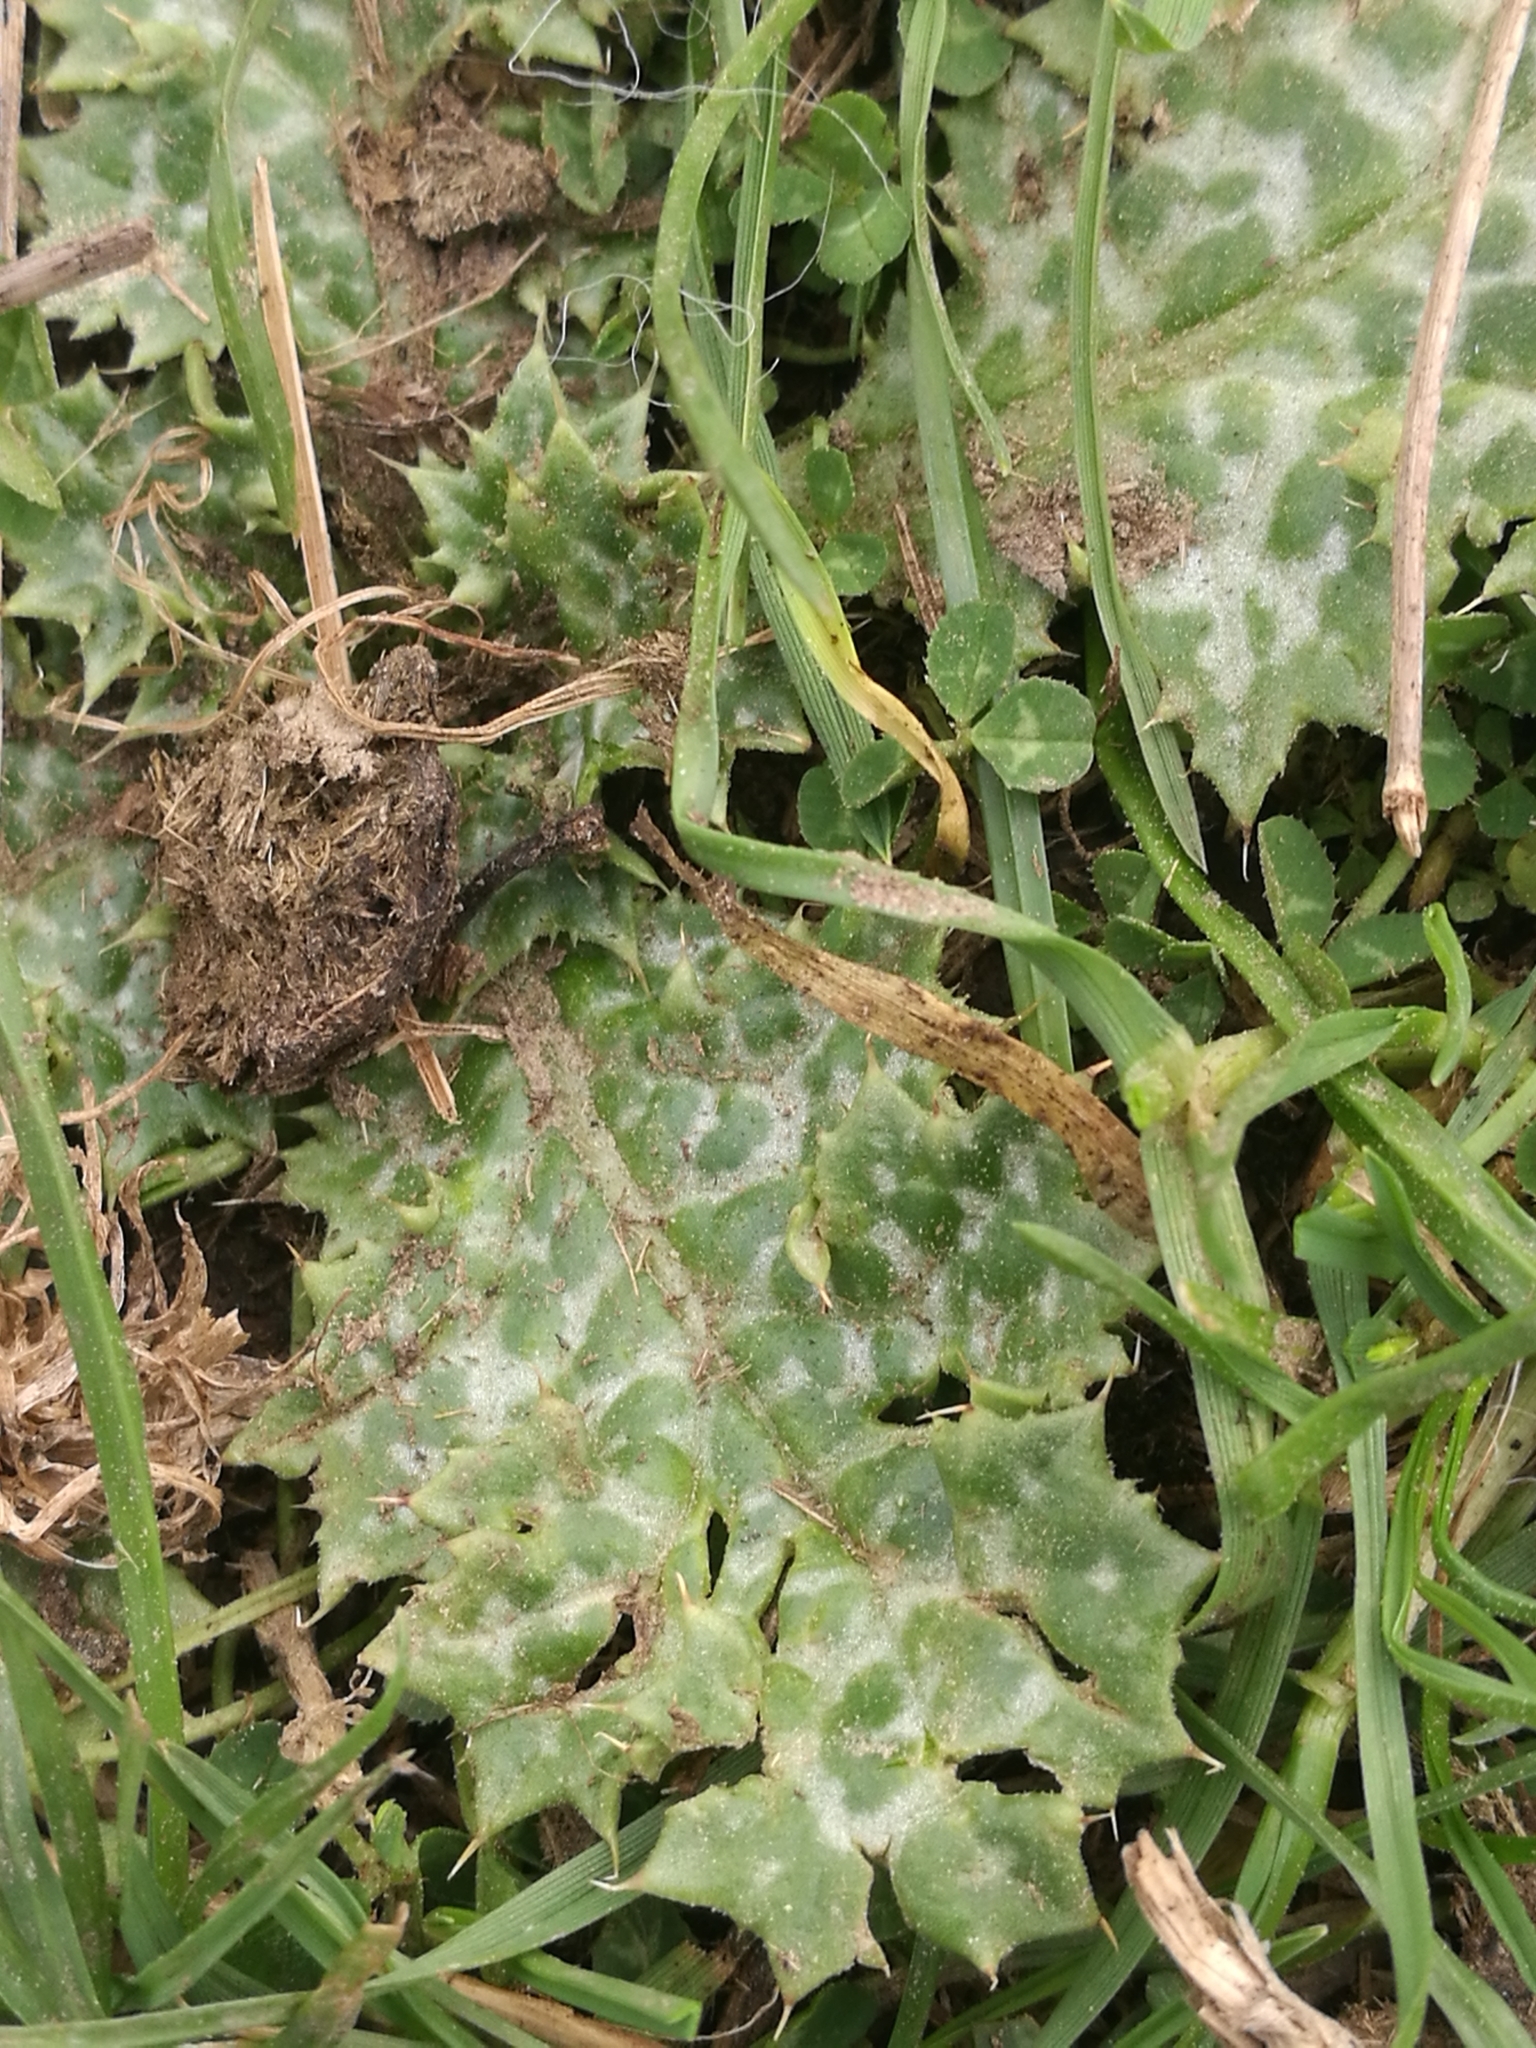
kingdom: Plantae
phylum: Tracheophyta
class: Magnoliopsida
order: Asterales
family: Asteraceae
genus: Silybum
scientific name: Silybum marianum
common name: Milk thistle
